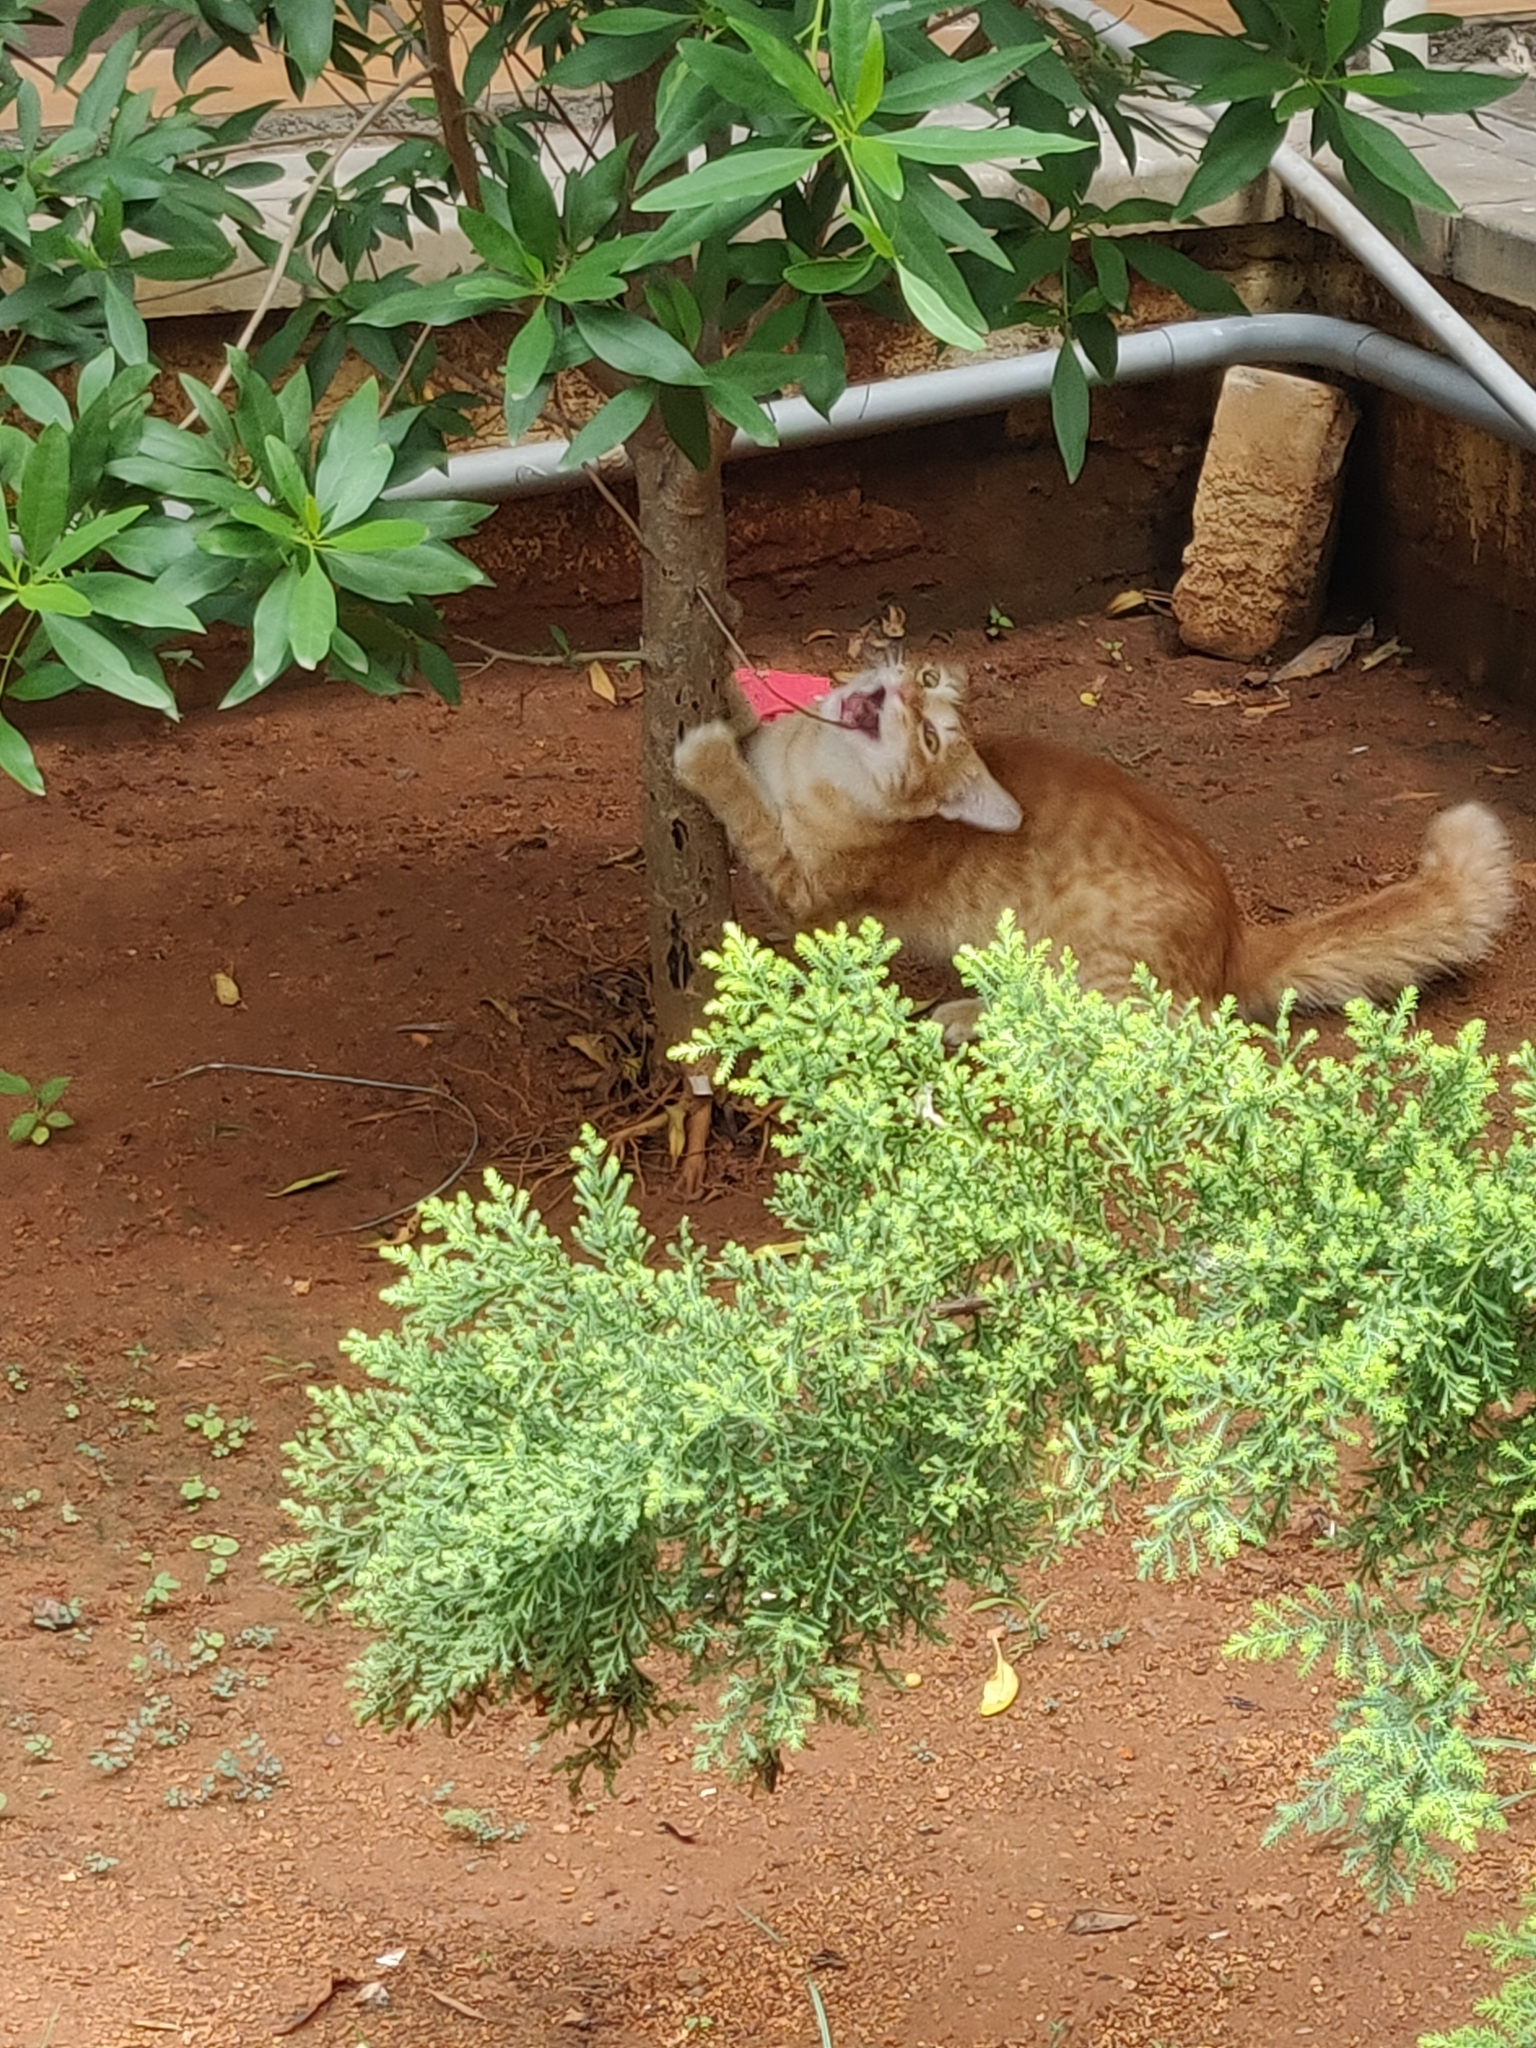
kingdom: Animalia
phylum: Chordata
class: Mammalia
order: Carnivora
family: Felidae
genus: Felis
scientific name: Felis catus
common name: Domestic cat
